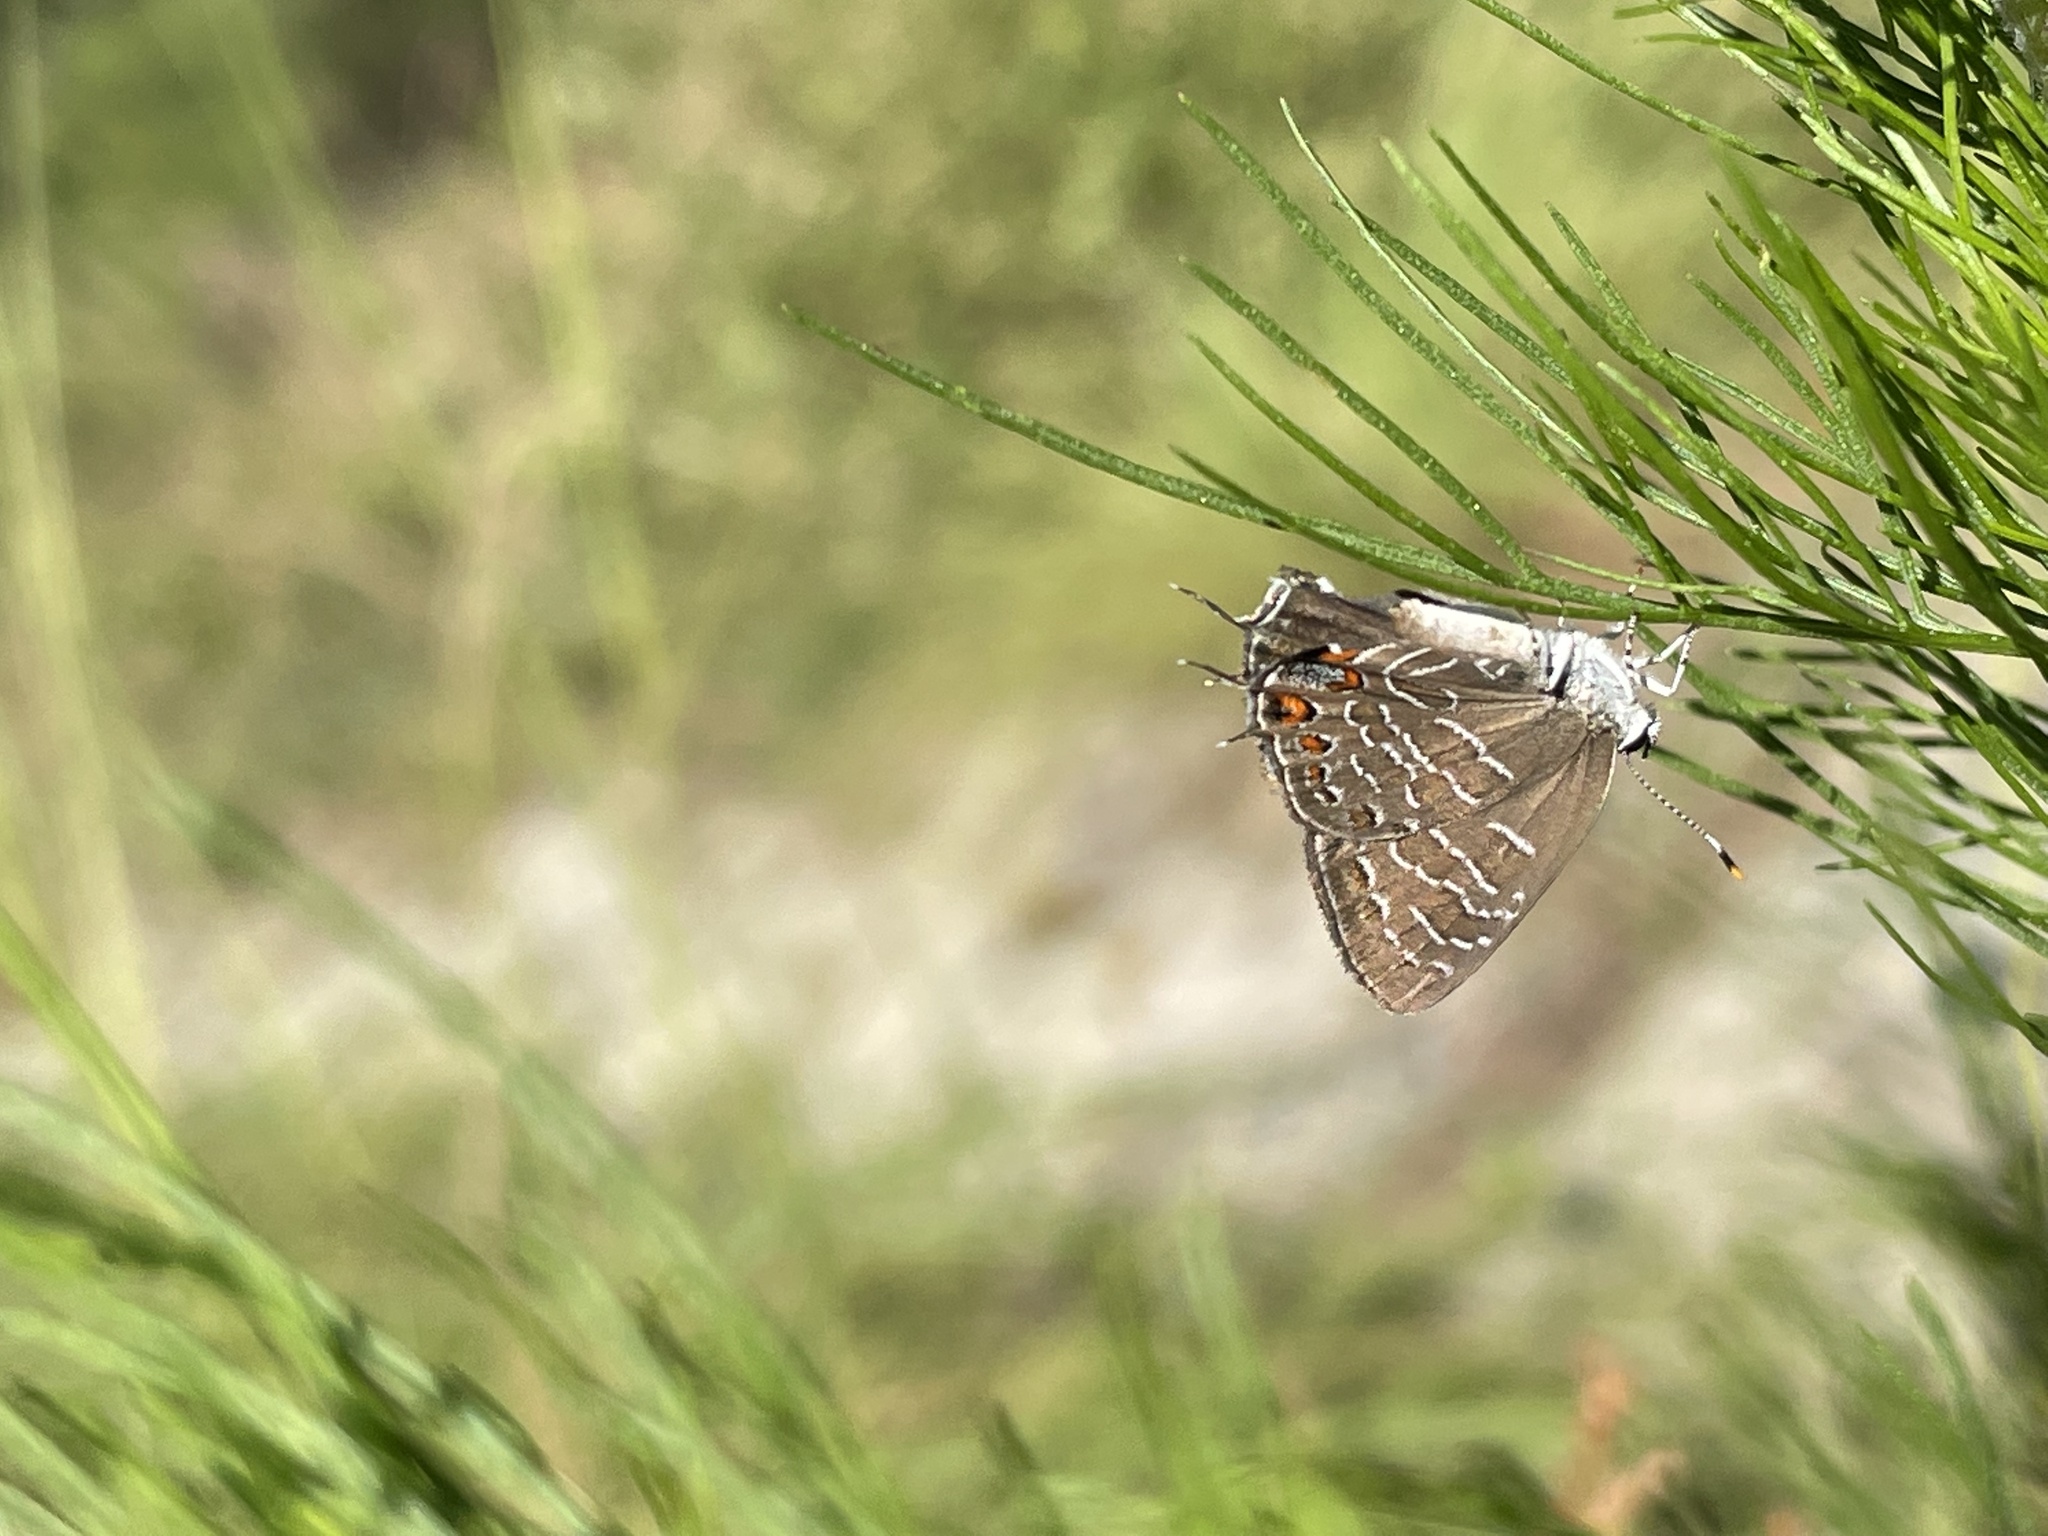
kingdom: Animalia
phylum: Arthropoda
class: Insecta
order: Lepidoptera
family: Lycaenidae
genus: Satyrium
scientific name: Satyrium liparops
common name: Striped hairstreak
